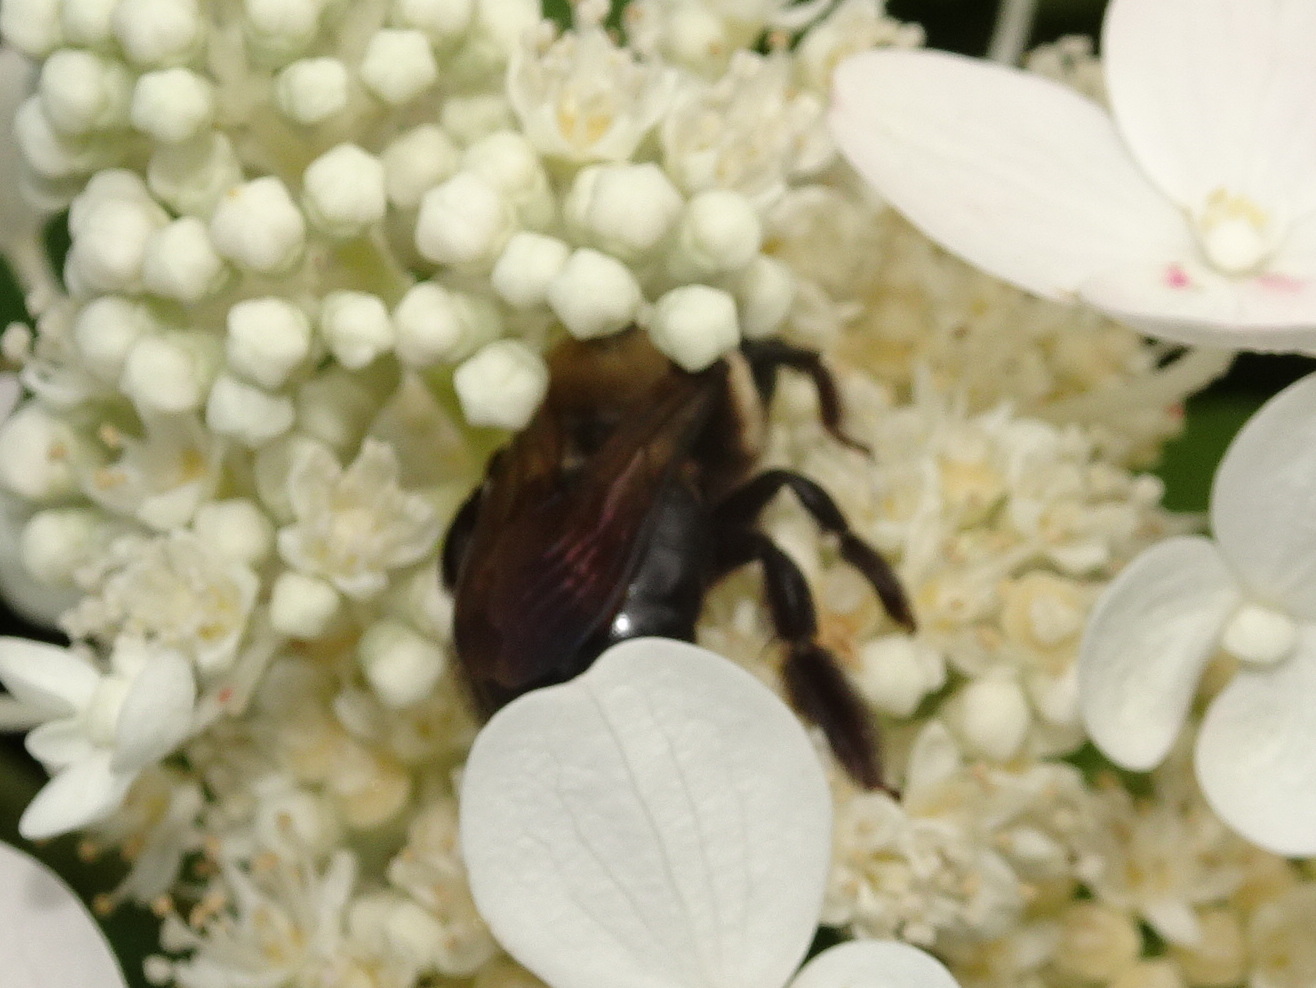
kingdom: Animalia
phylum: Arthropoda
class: Insecta
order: Hymenoptera
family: Apidae
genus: Xylocopa
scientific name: Xylocopa virginica
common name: Carpenter bee
